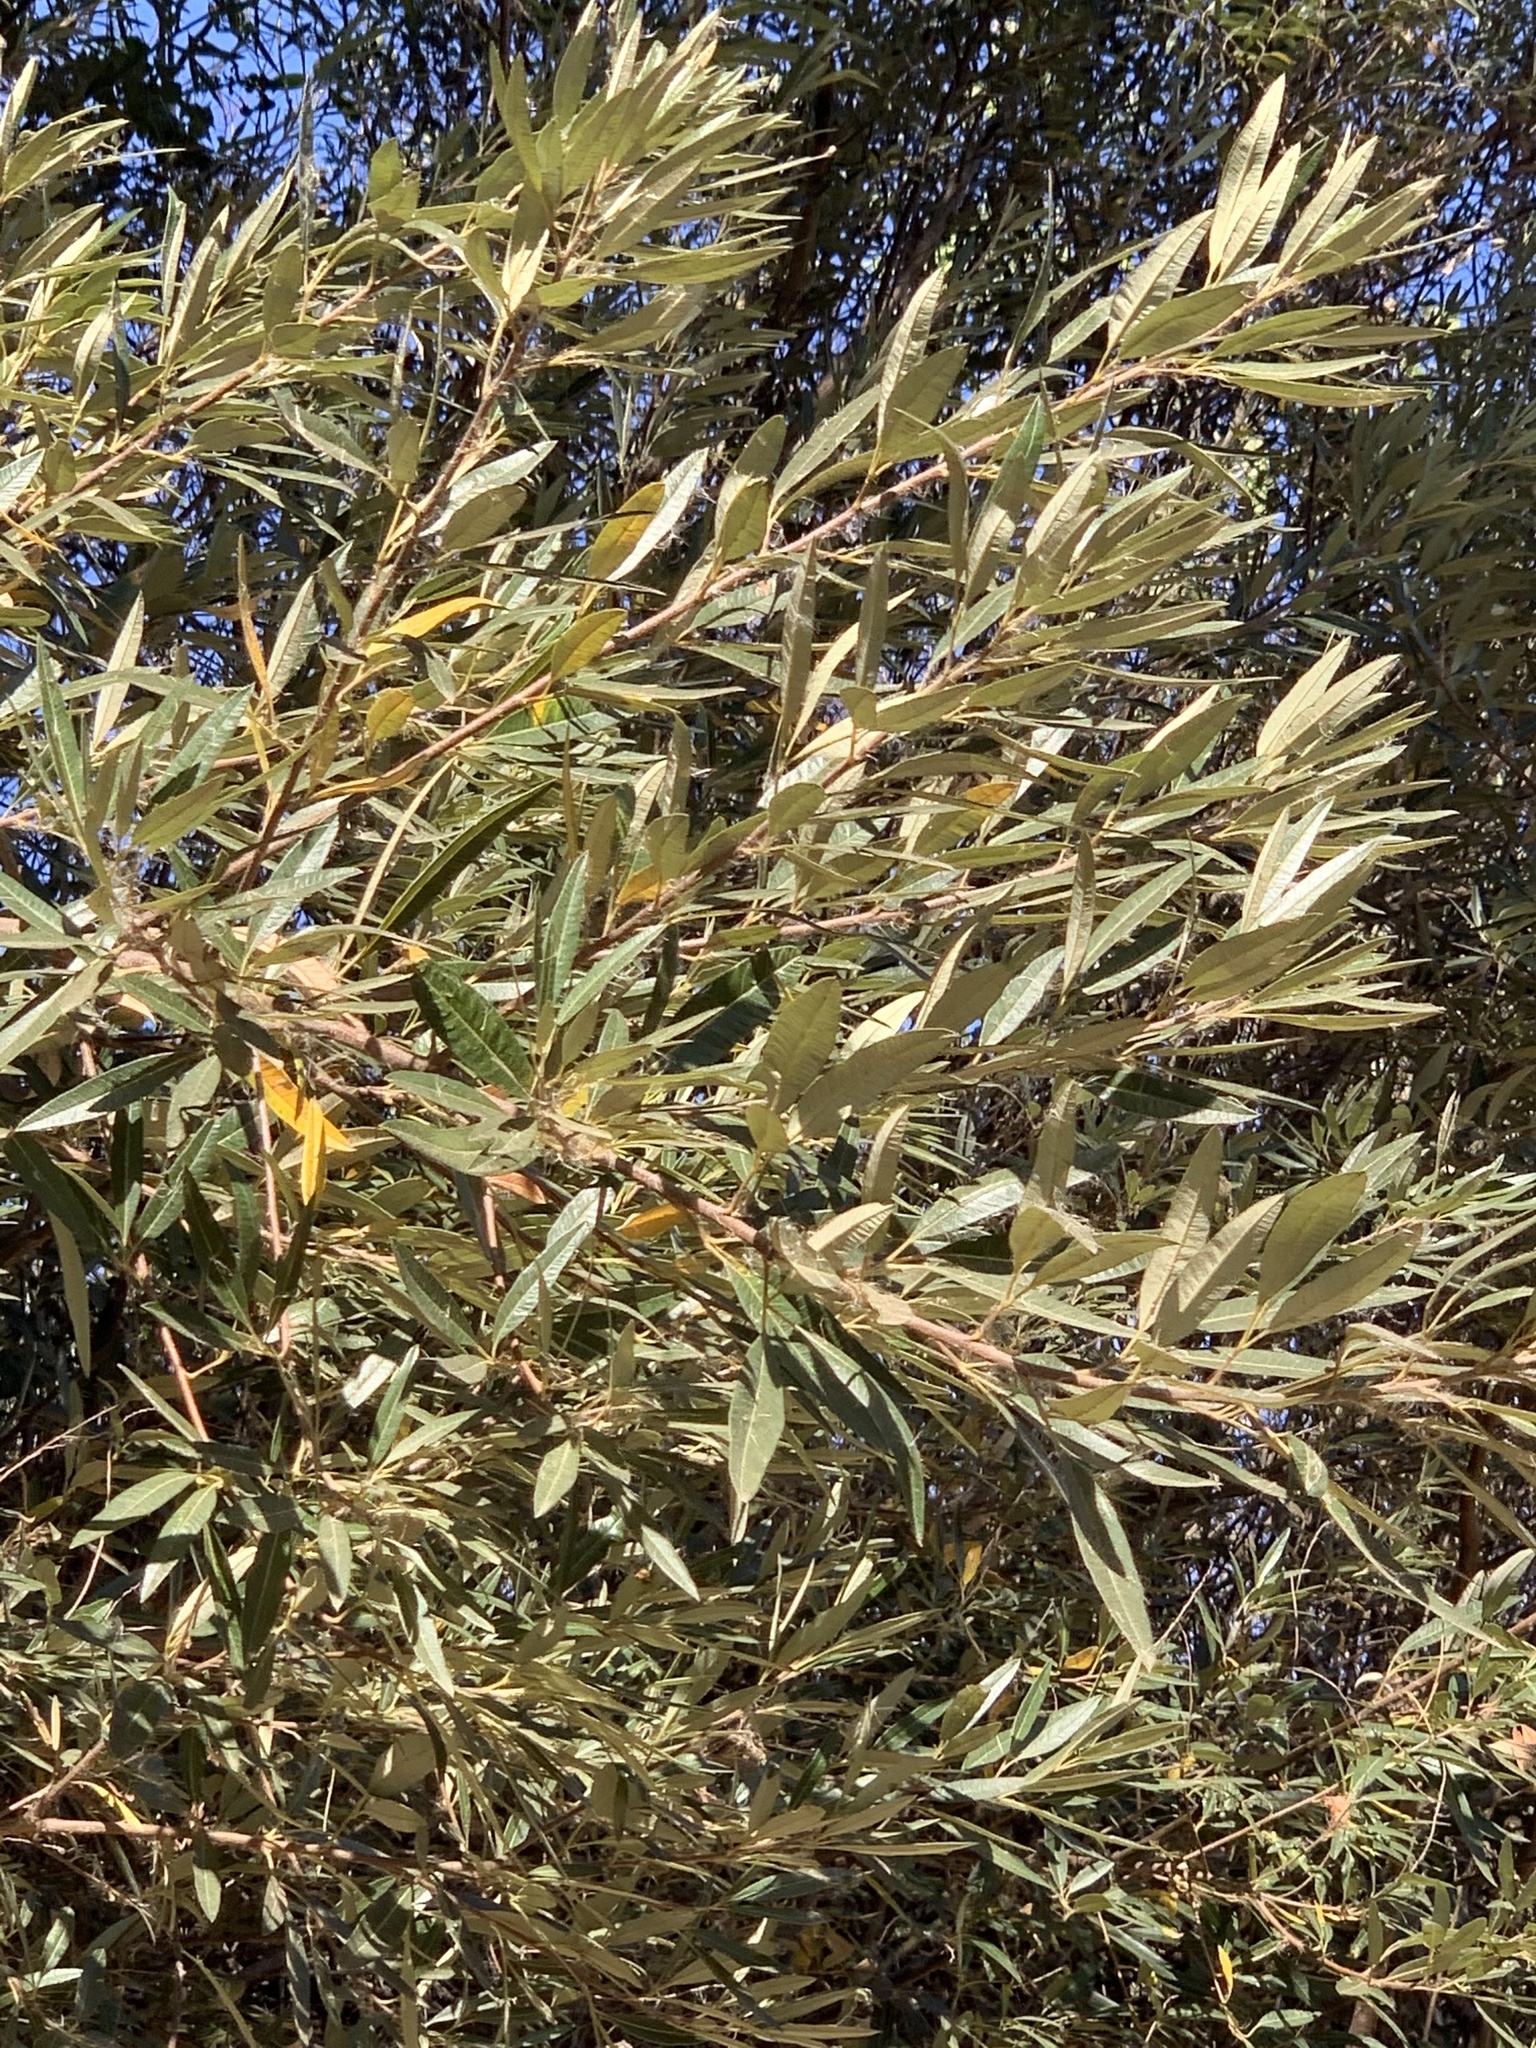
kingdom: Plantae
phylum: Tracheophyta
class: Magnoliopsida
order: Sapindales
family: Anacardiaceae
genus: Searsia
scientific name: Searsia angustifolia
